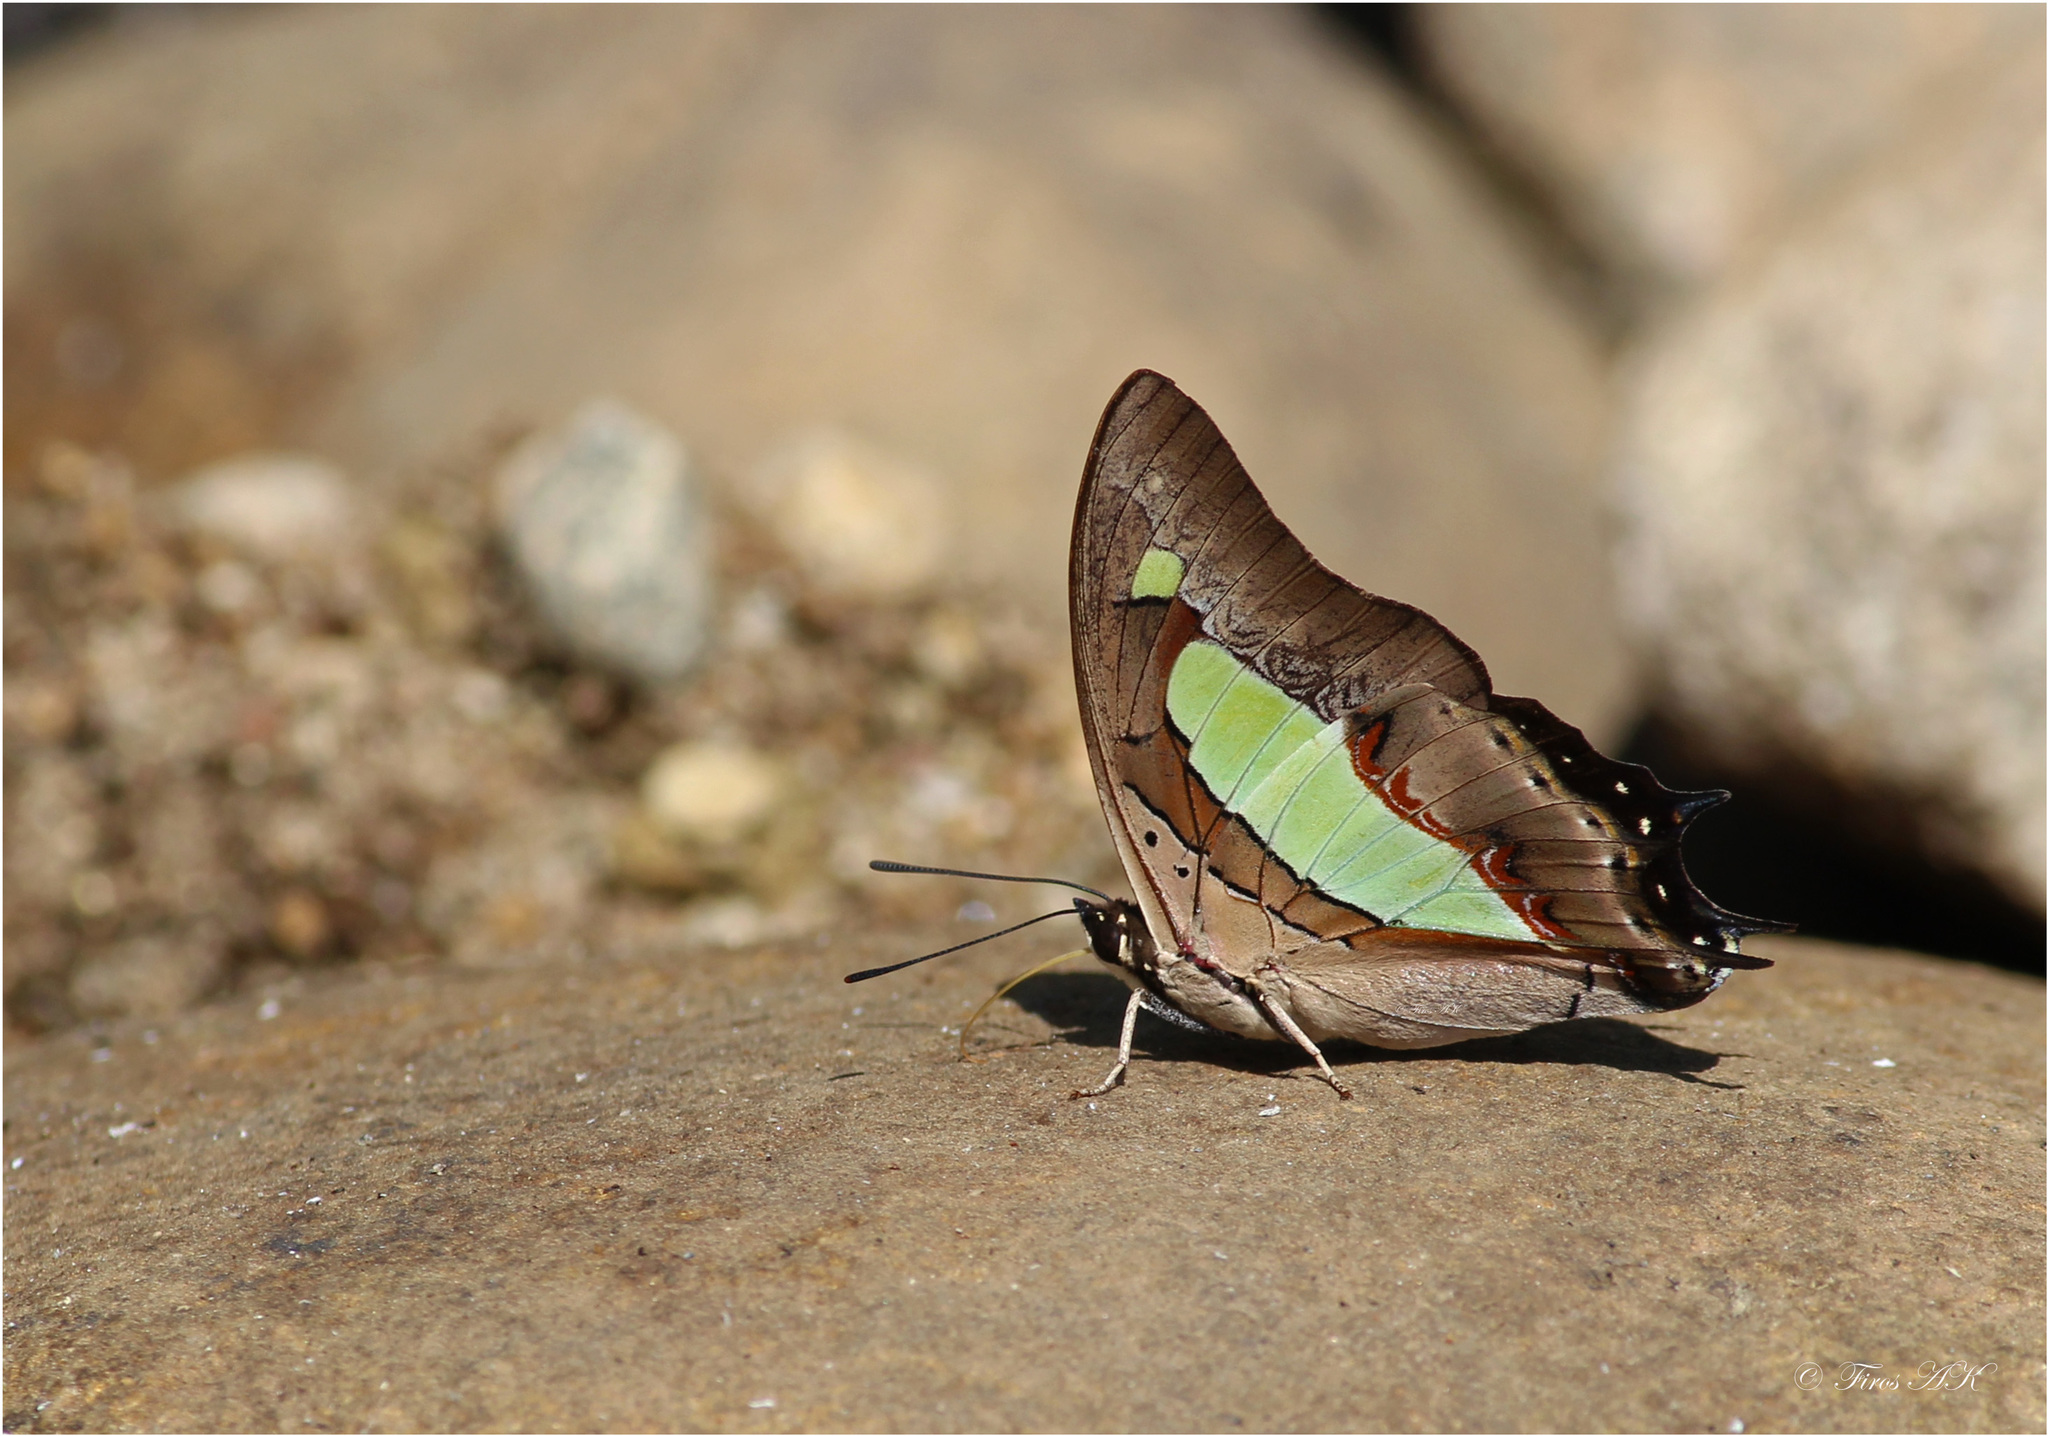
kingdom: Animalia
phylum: Arthropoda
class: Insecta
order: Lepidoptera
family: Nymphalidae
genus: Polyura
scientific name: Polyura
